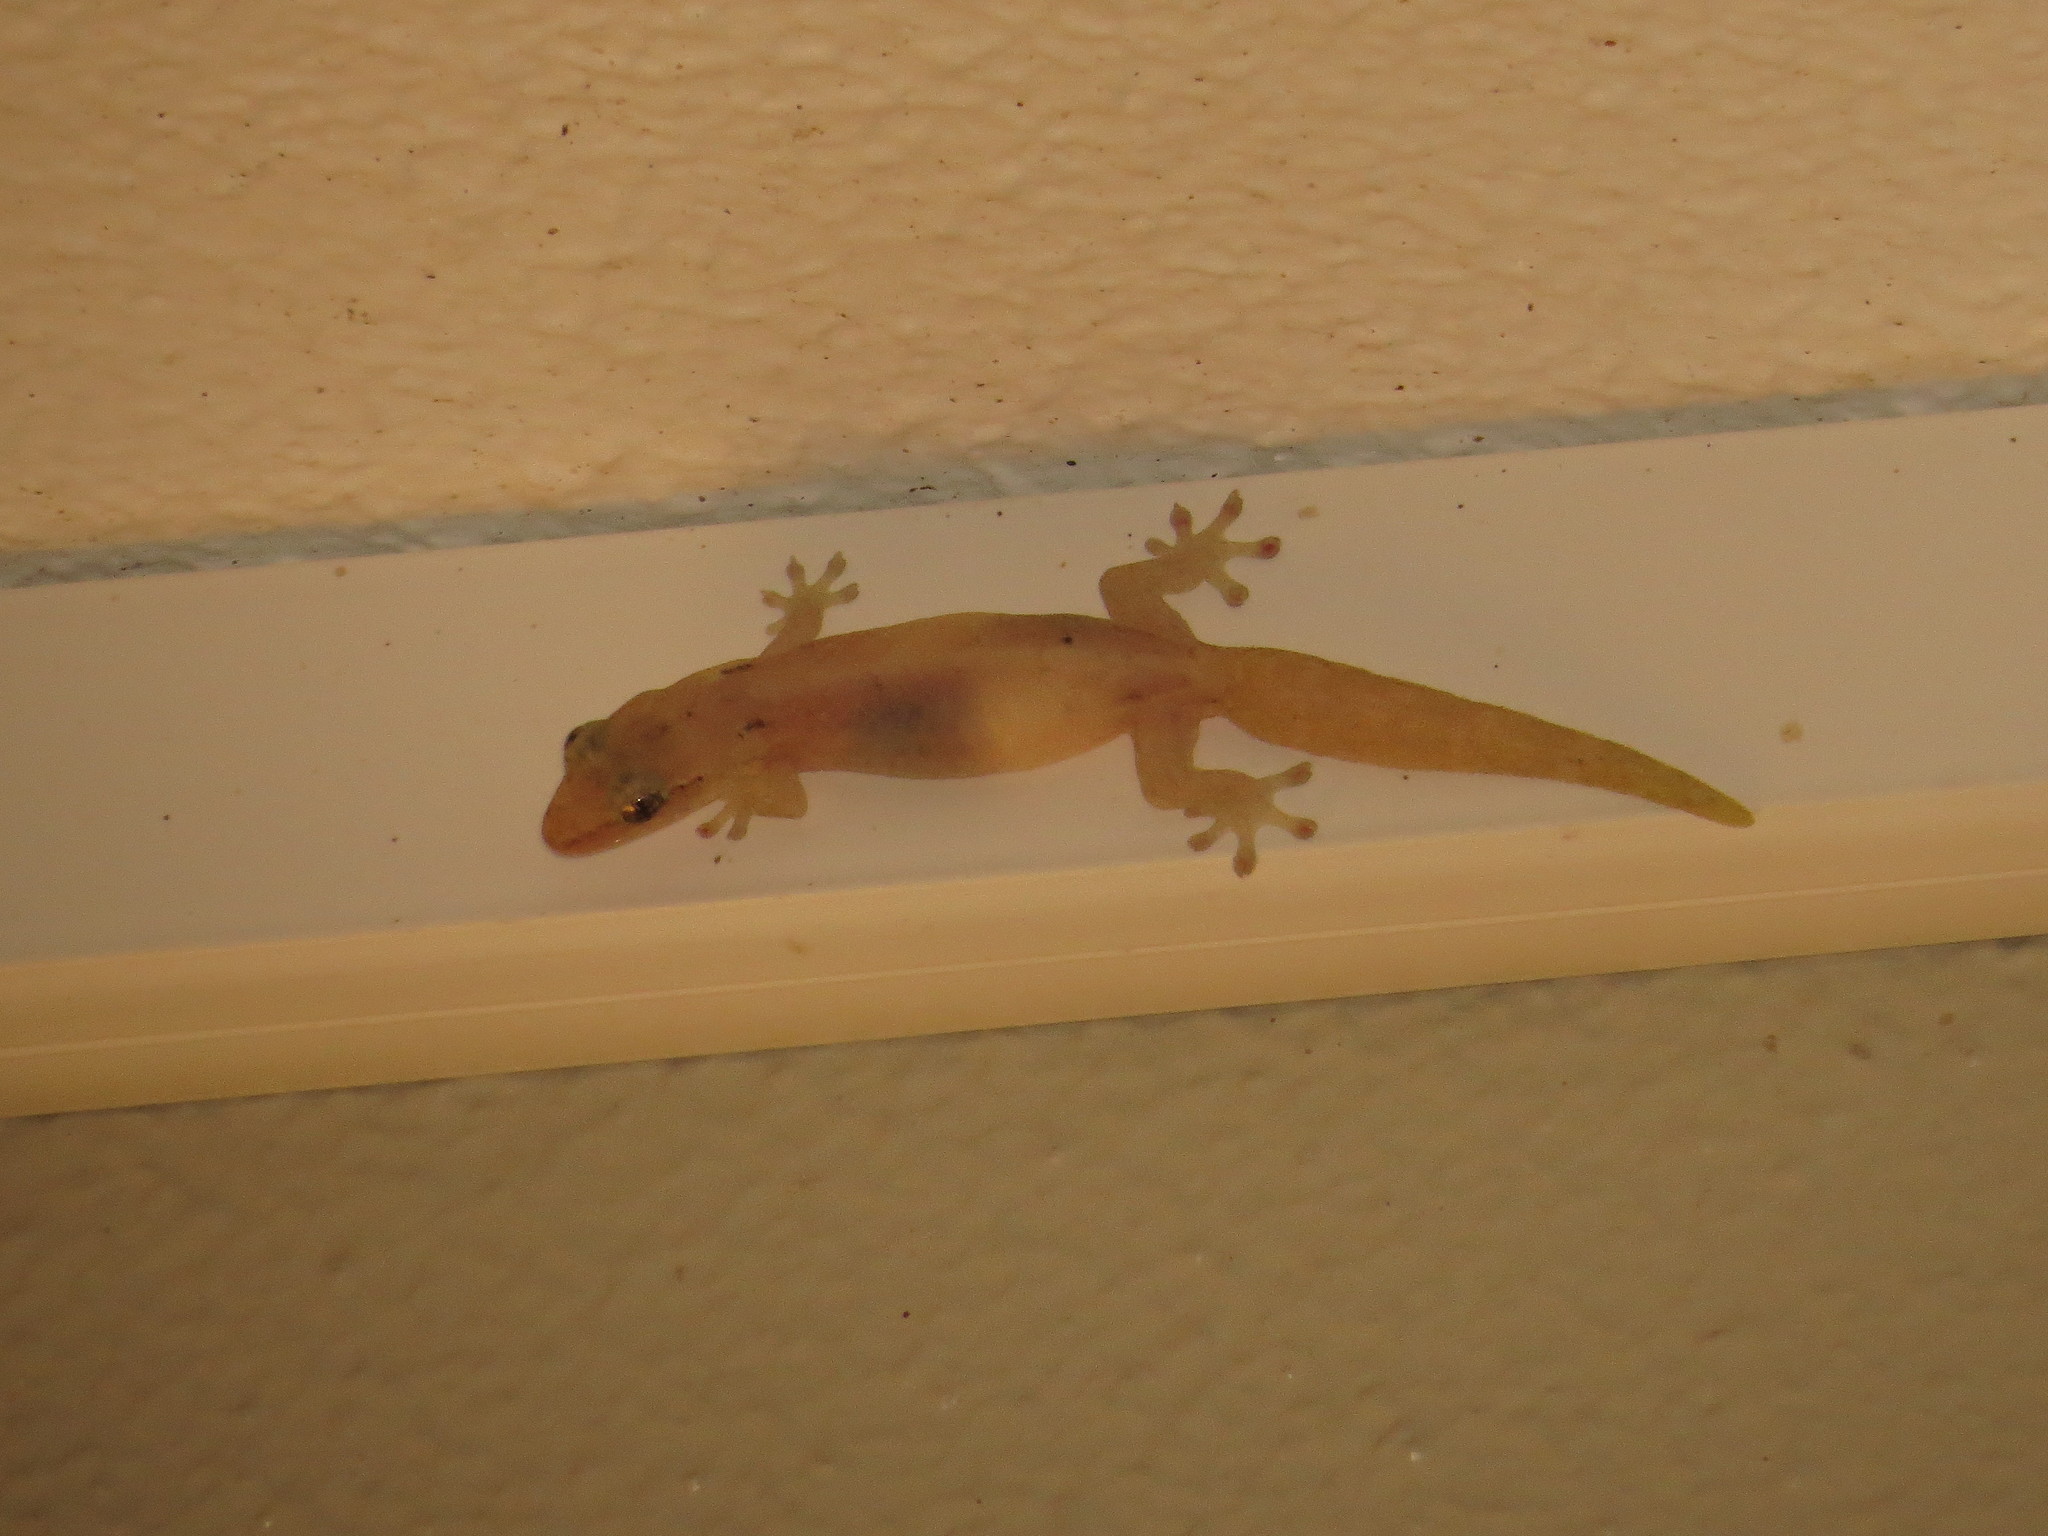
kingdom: Animalia
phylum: Chordata
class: Squamata
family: Gekkonidae
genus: Lepidodactylus
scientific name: Lepidodactylus lugubris
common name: Mourning gecko
